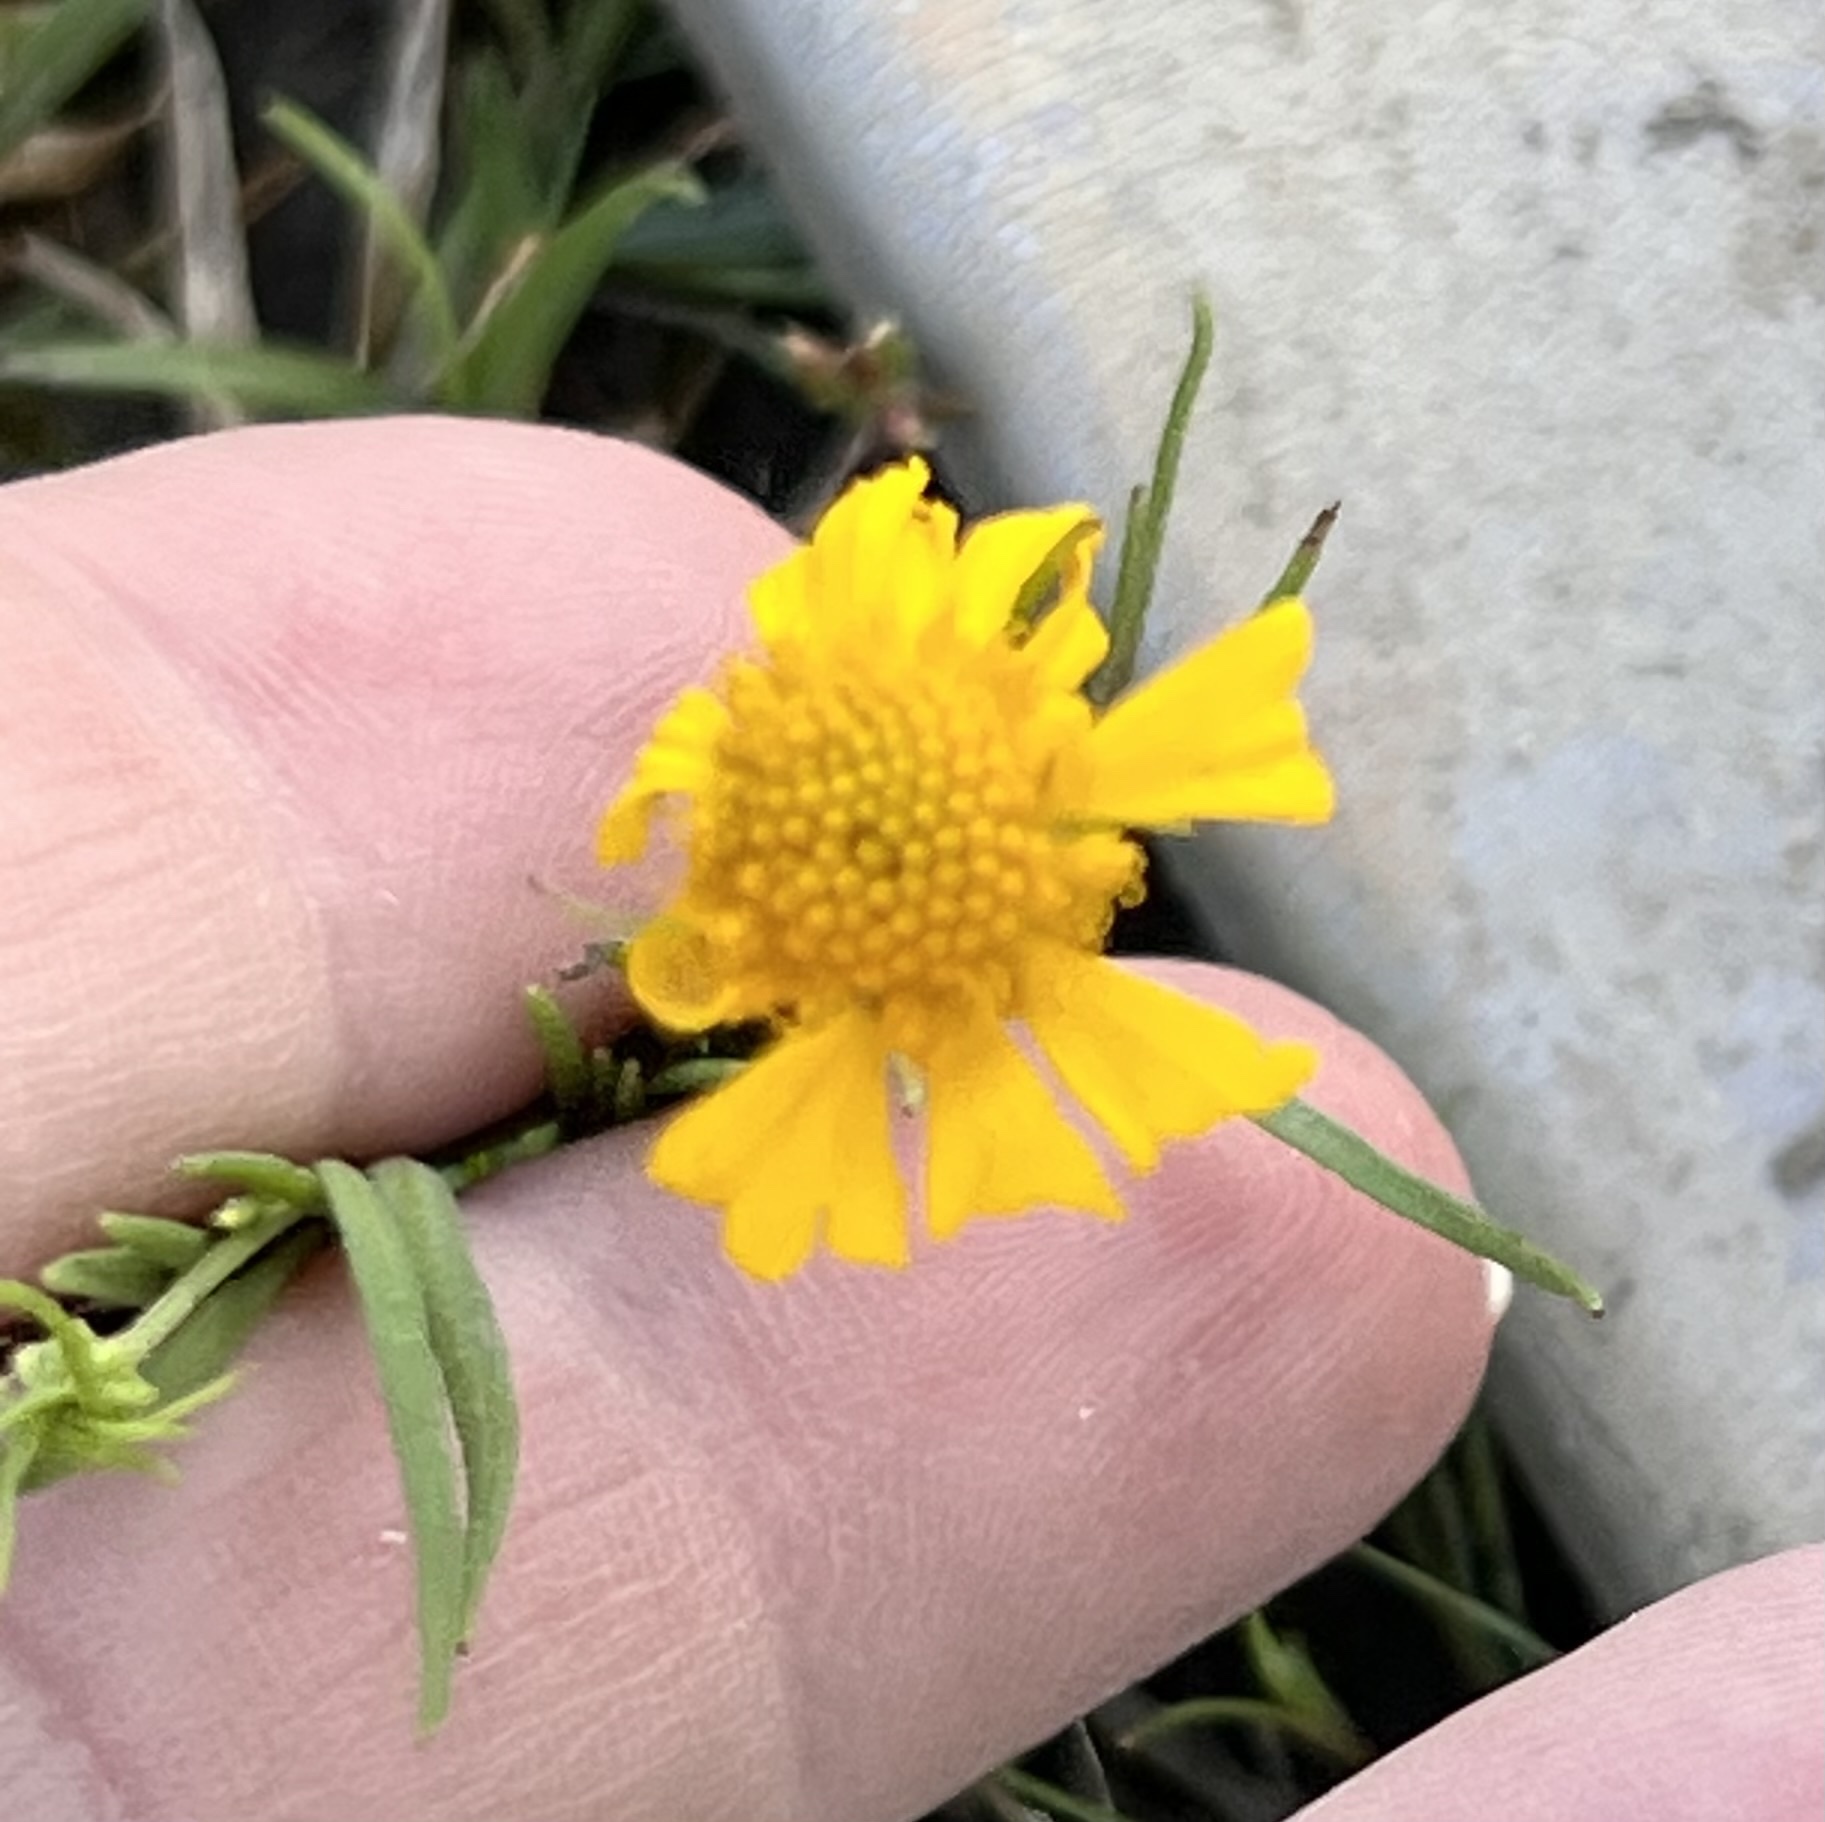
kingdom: Plantae
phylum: Tracheophyta
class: Magnoliopsida
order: Asterales
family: Asteraceae
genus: Helenium
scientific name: Helenium amarum
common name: Bitter sneezeweed
